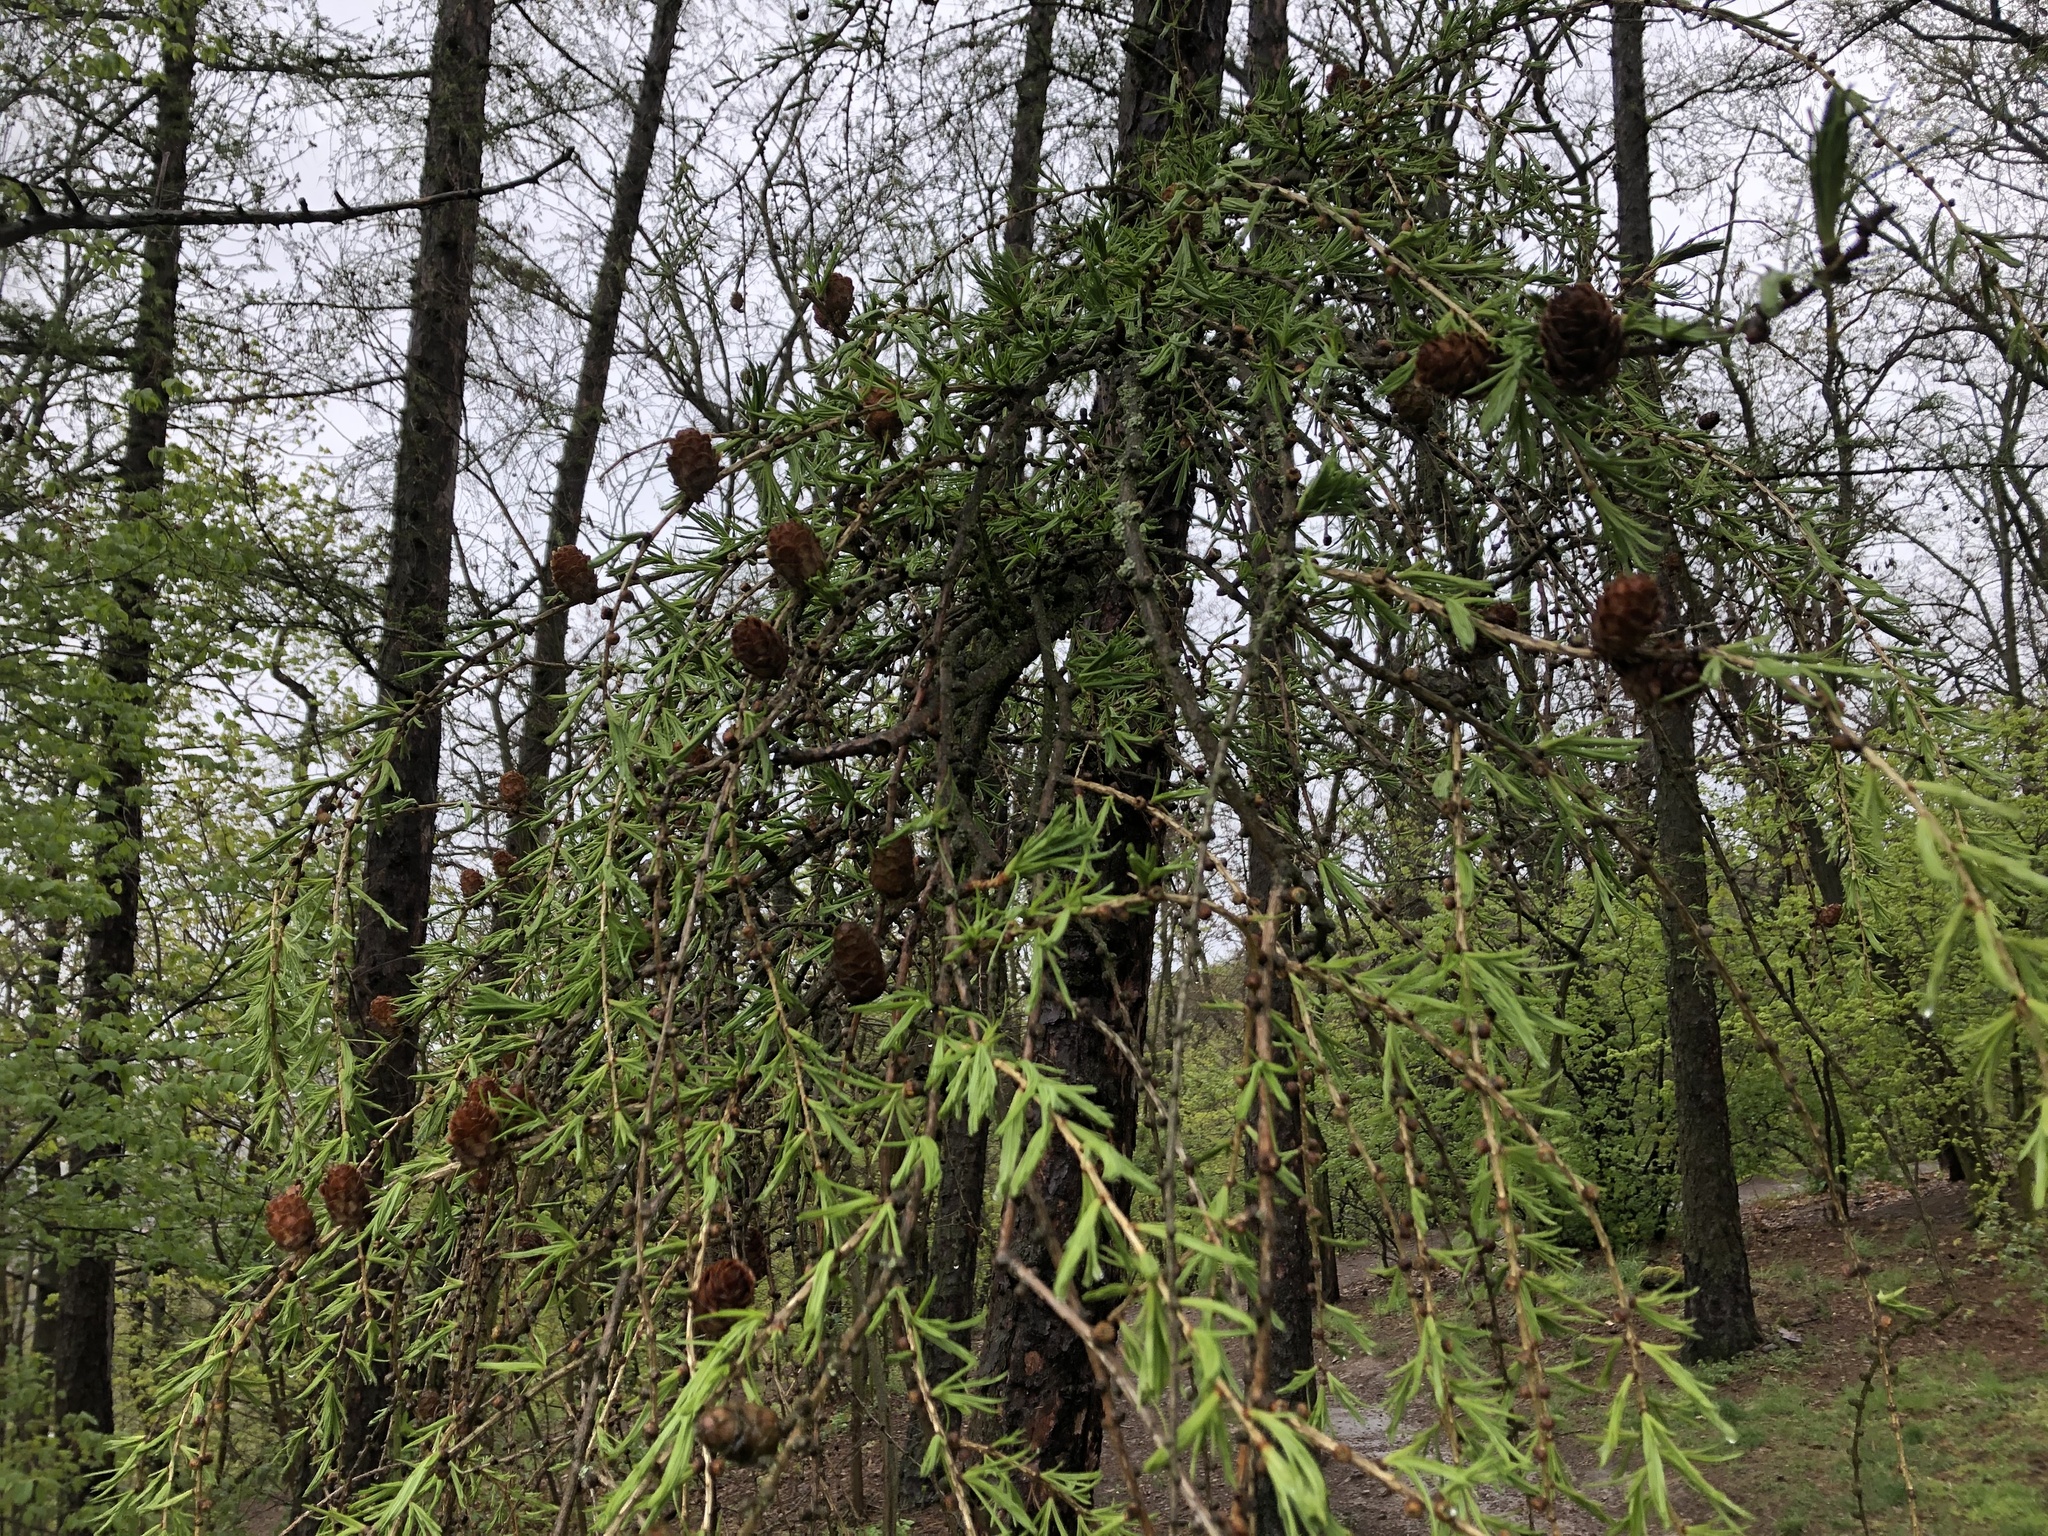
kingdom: Plantae
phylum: Tracheophyta
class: Pinopsida
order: Pinales
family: Pinaceae
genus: Larix
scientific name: Larix decidua
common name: European larch
